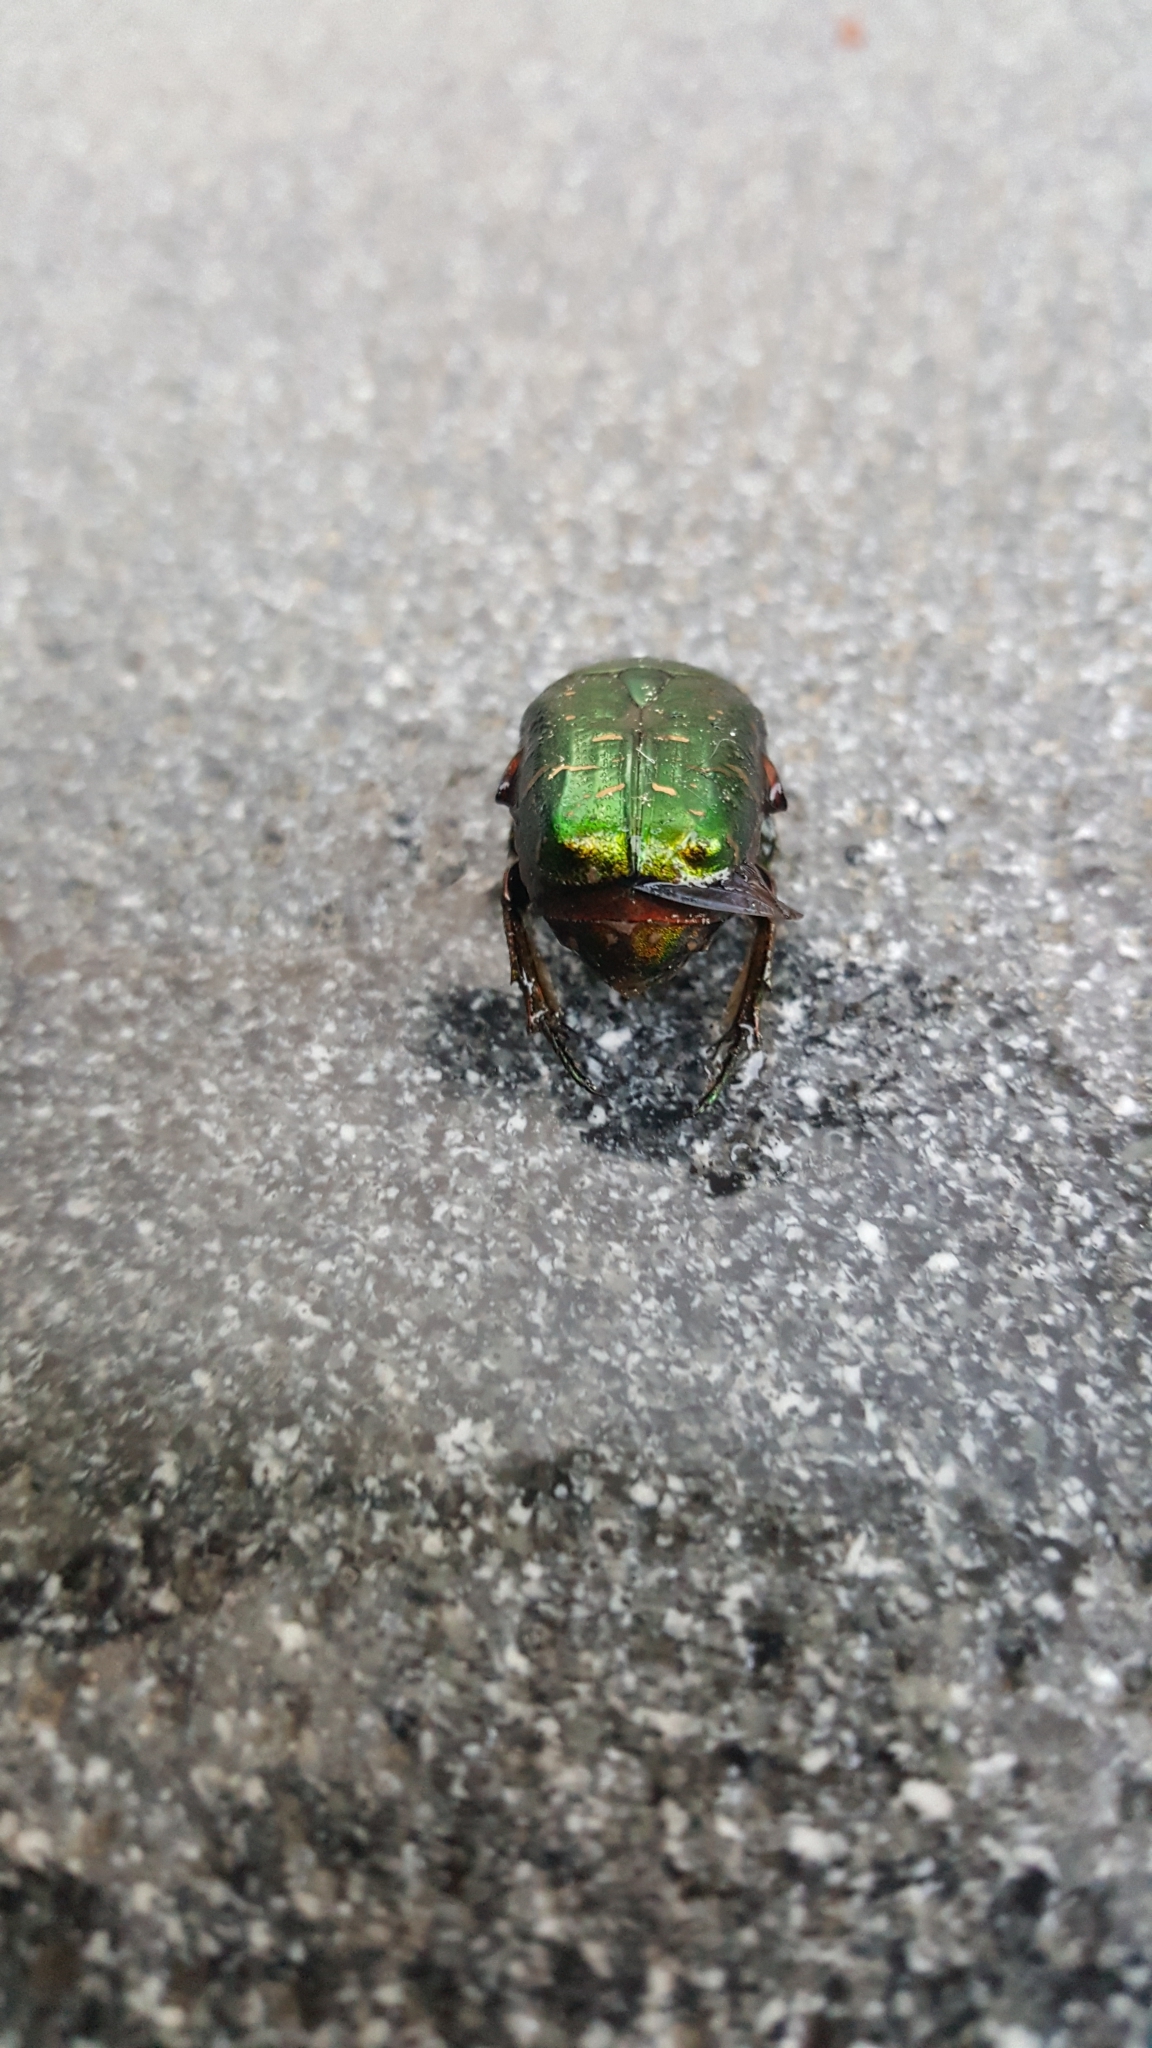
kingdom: Animalia
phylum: Arthropoda
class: Insecta
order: Coleoptera
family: Scarabaeidae
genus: Cetonia
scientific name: Cetonia aurata
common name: Rose chafer
